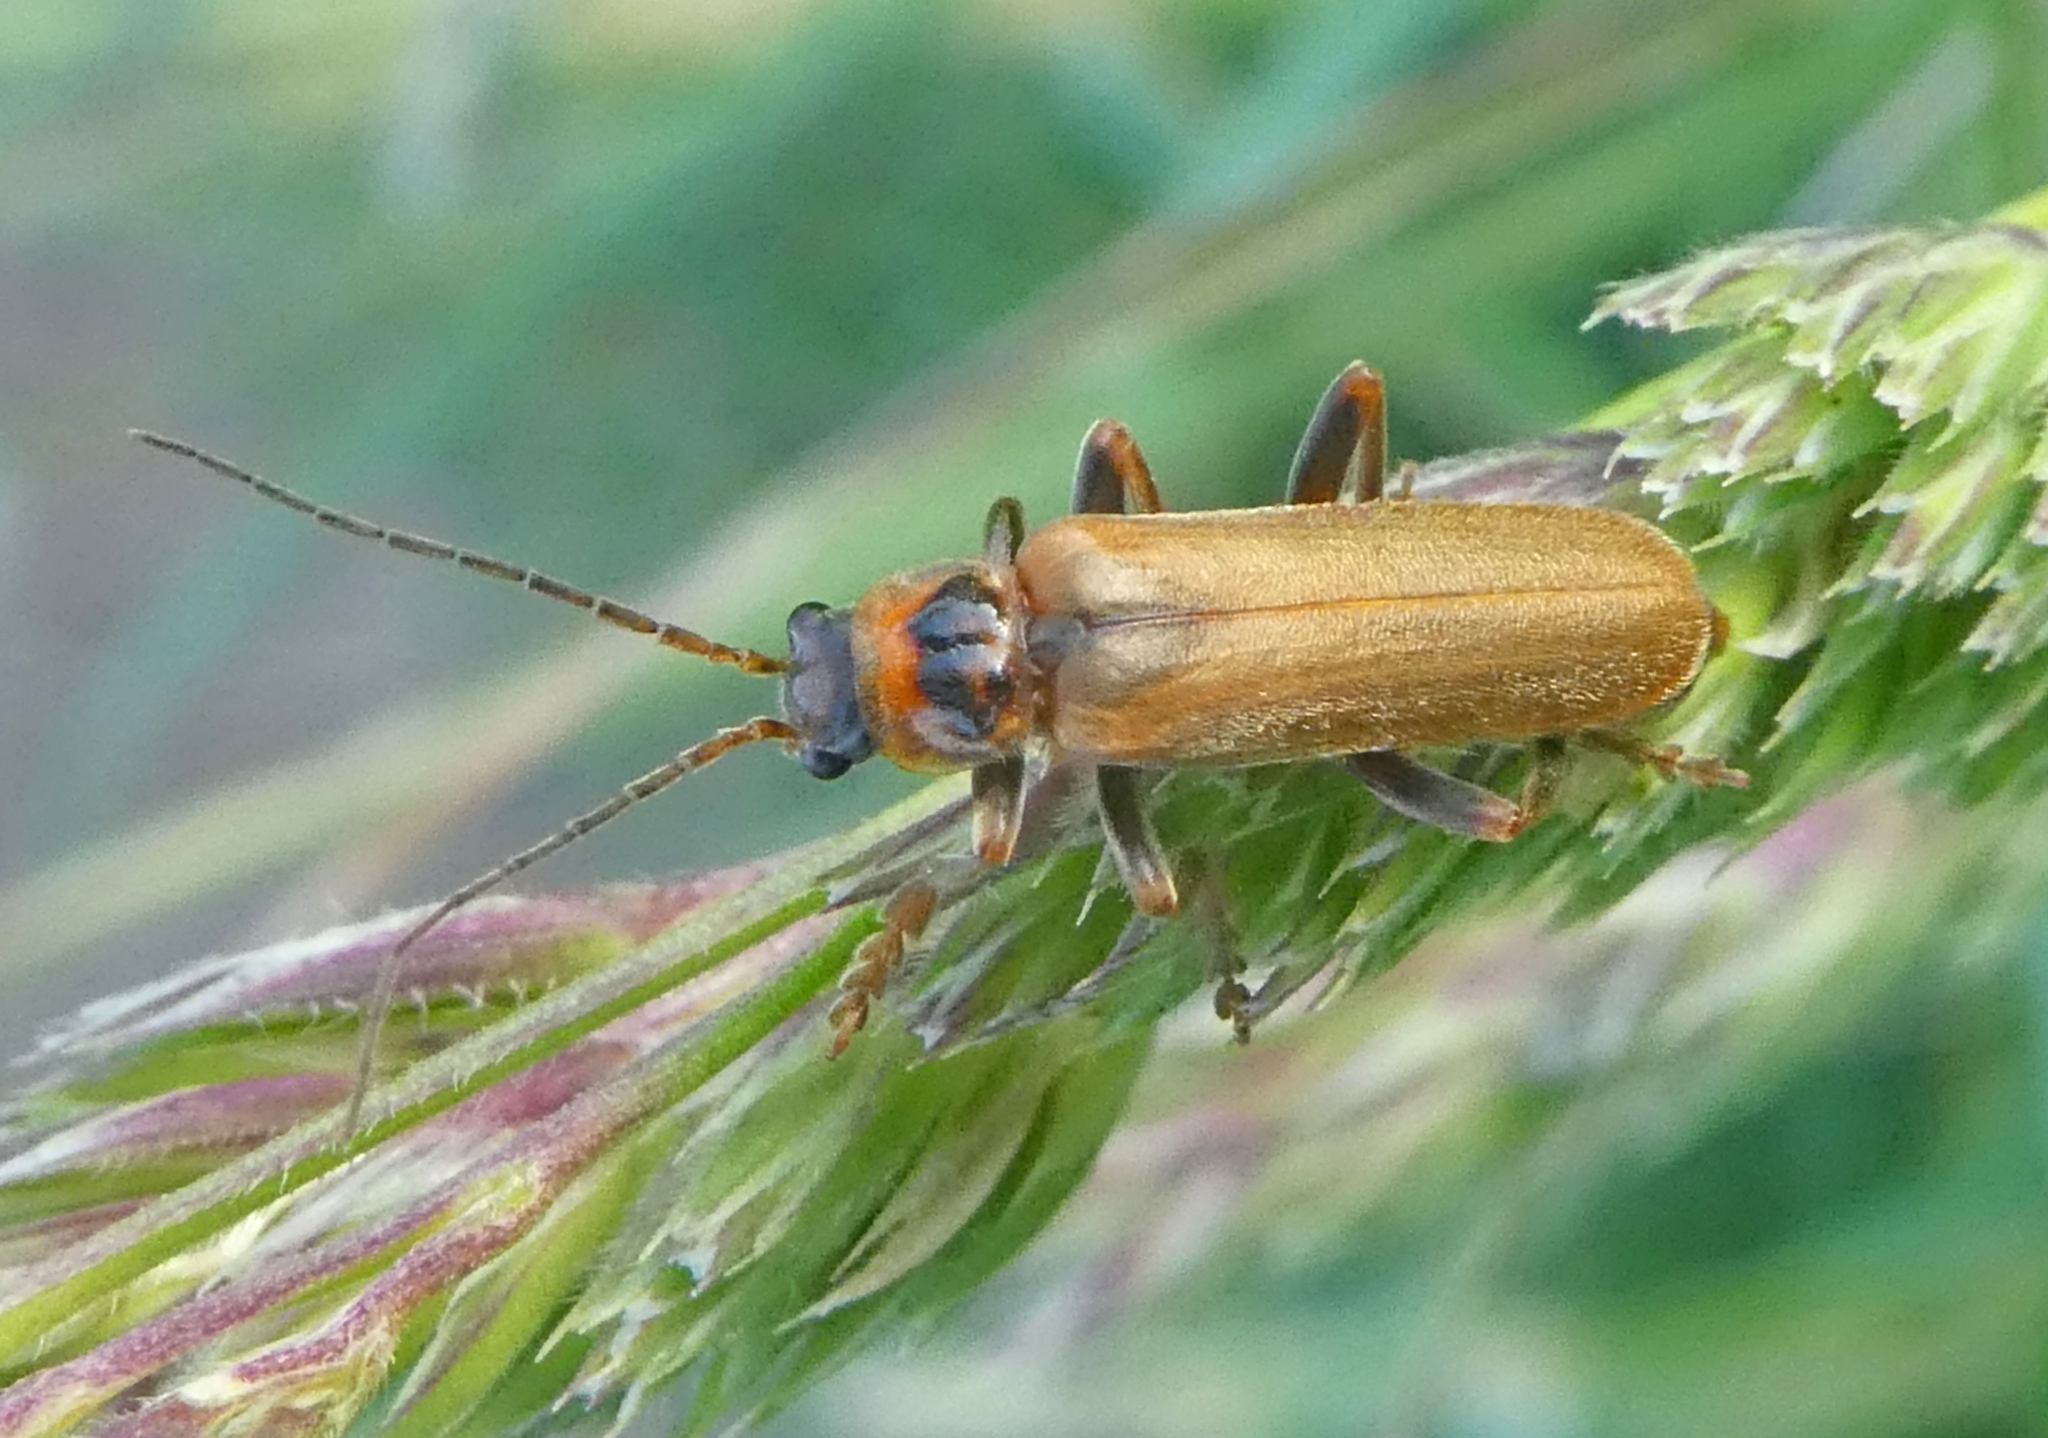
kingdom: Animalia
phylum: Arthropoda
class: Insecta
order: Coleoptera
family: Cantharidae
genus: Cantharis
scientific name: Cantharis rufa
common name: Red-spotted soldier beetle
